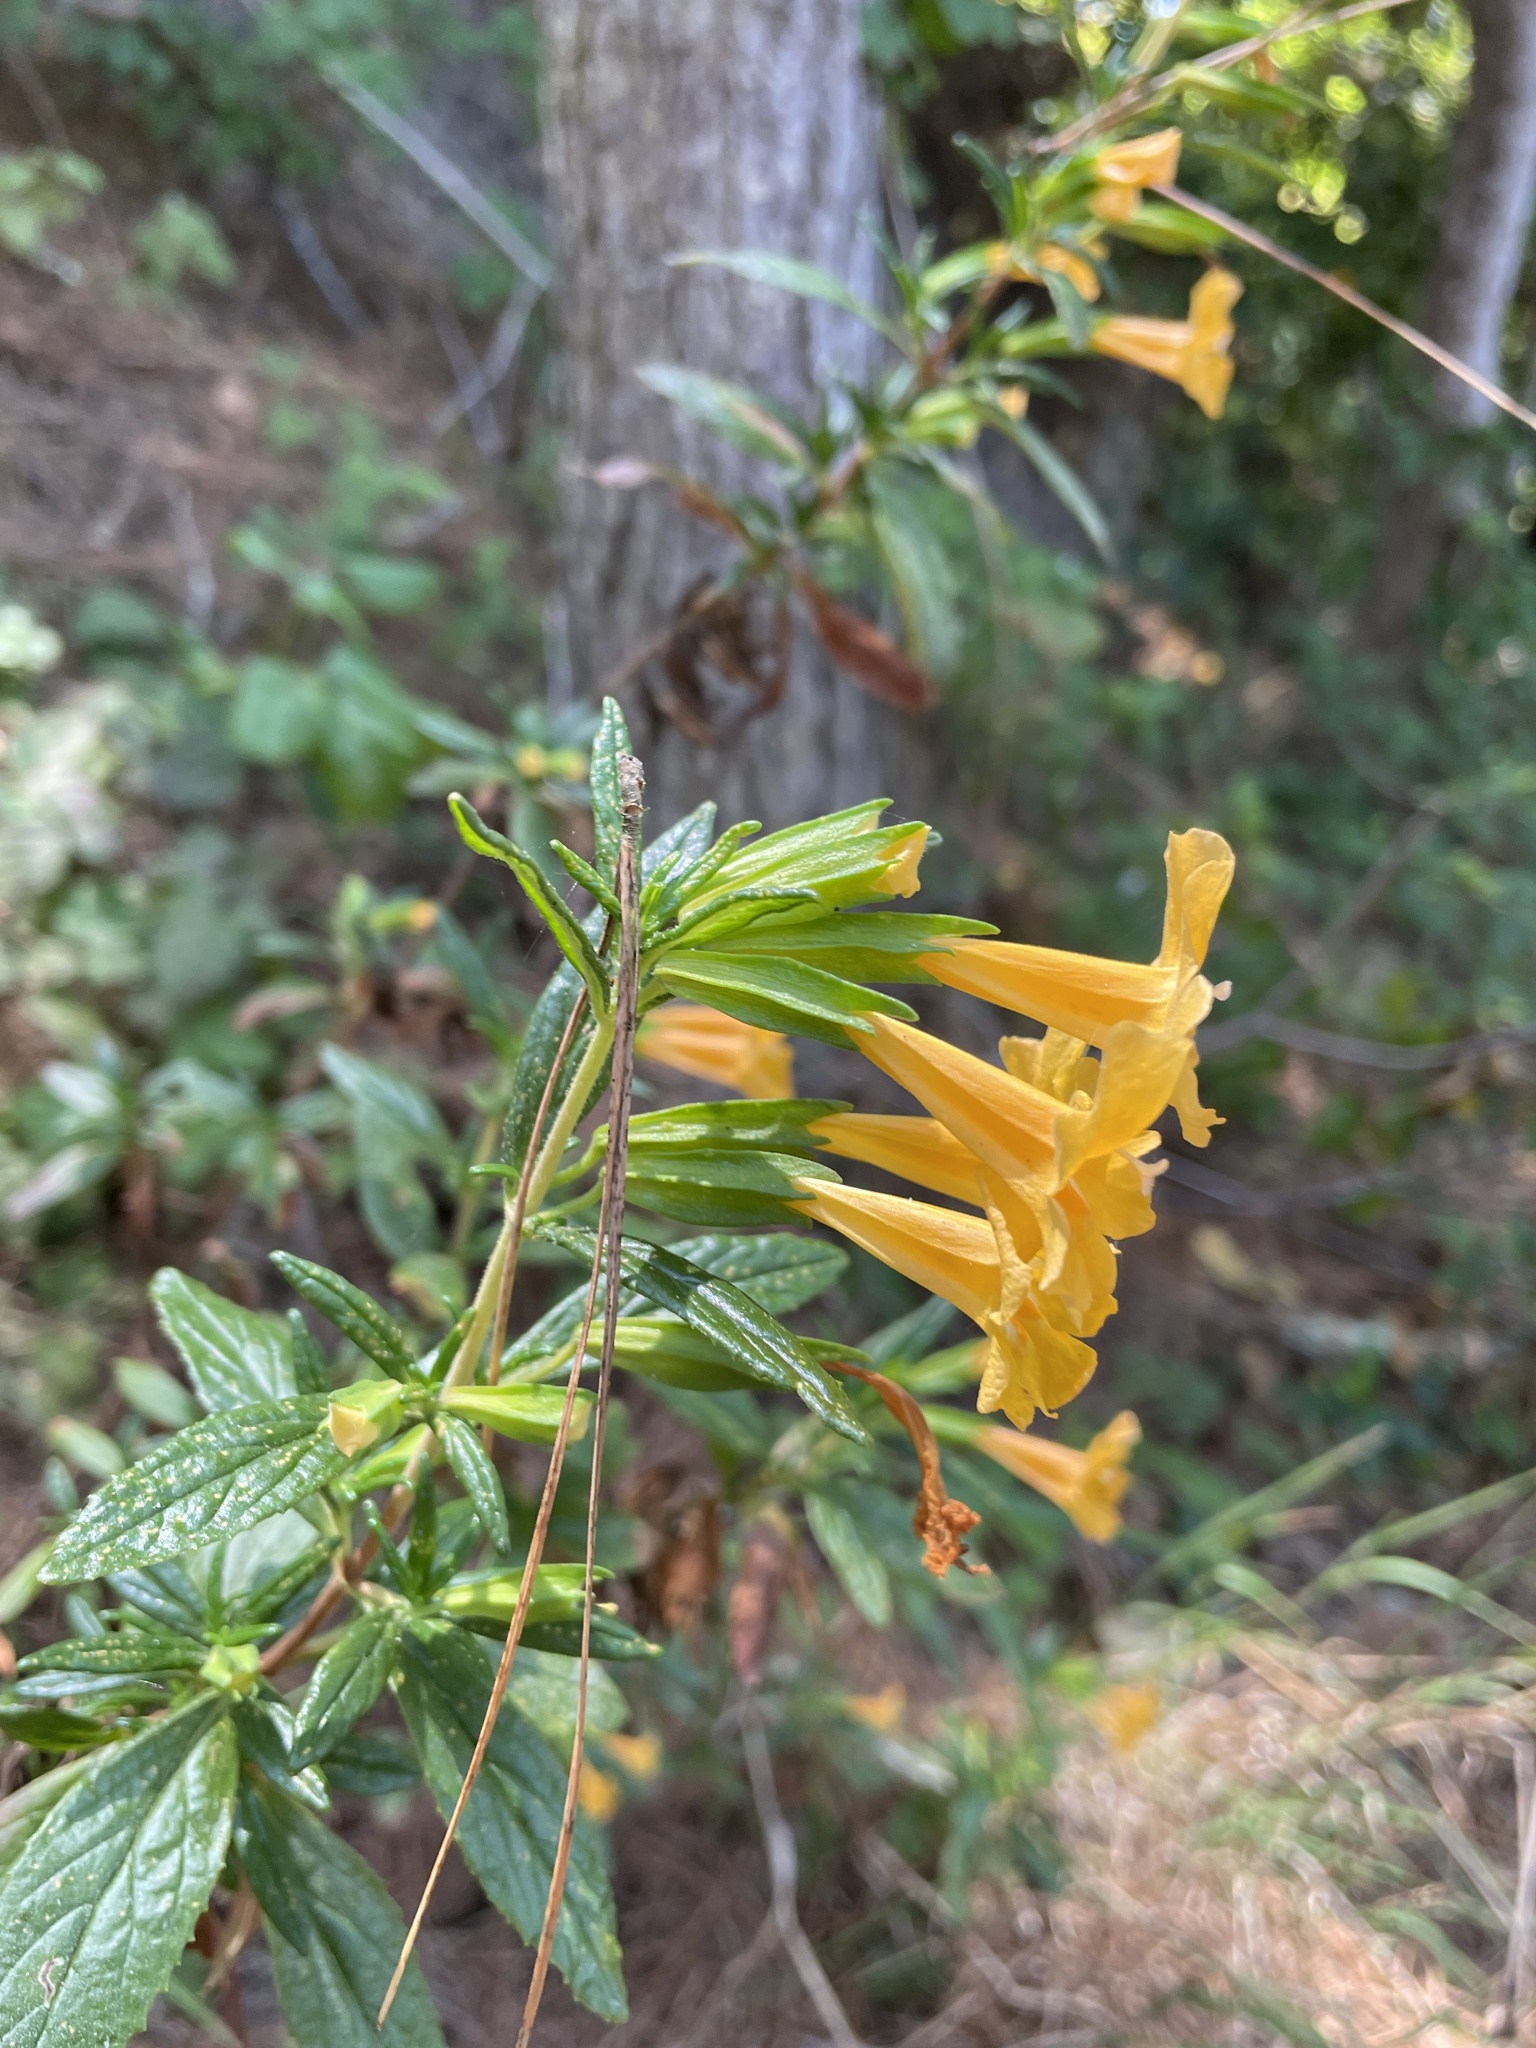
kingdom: Plantae
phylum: Tracheophyta
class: Magnoliopsida
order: Lamiales
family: Phrymaceae
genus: Diplacus
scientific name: Diplacus aurantiacus
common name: Bush monkey-flower
